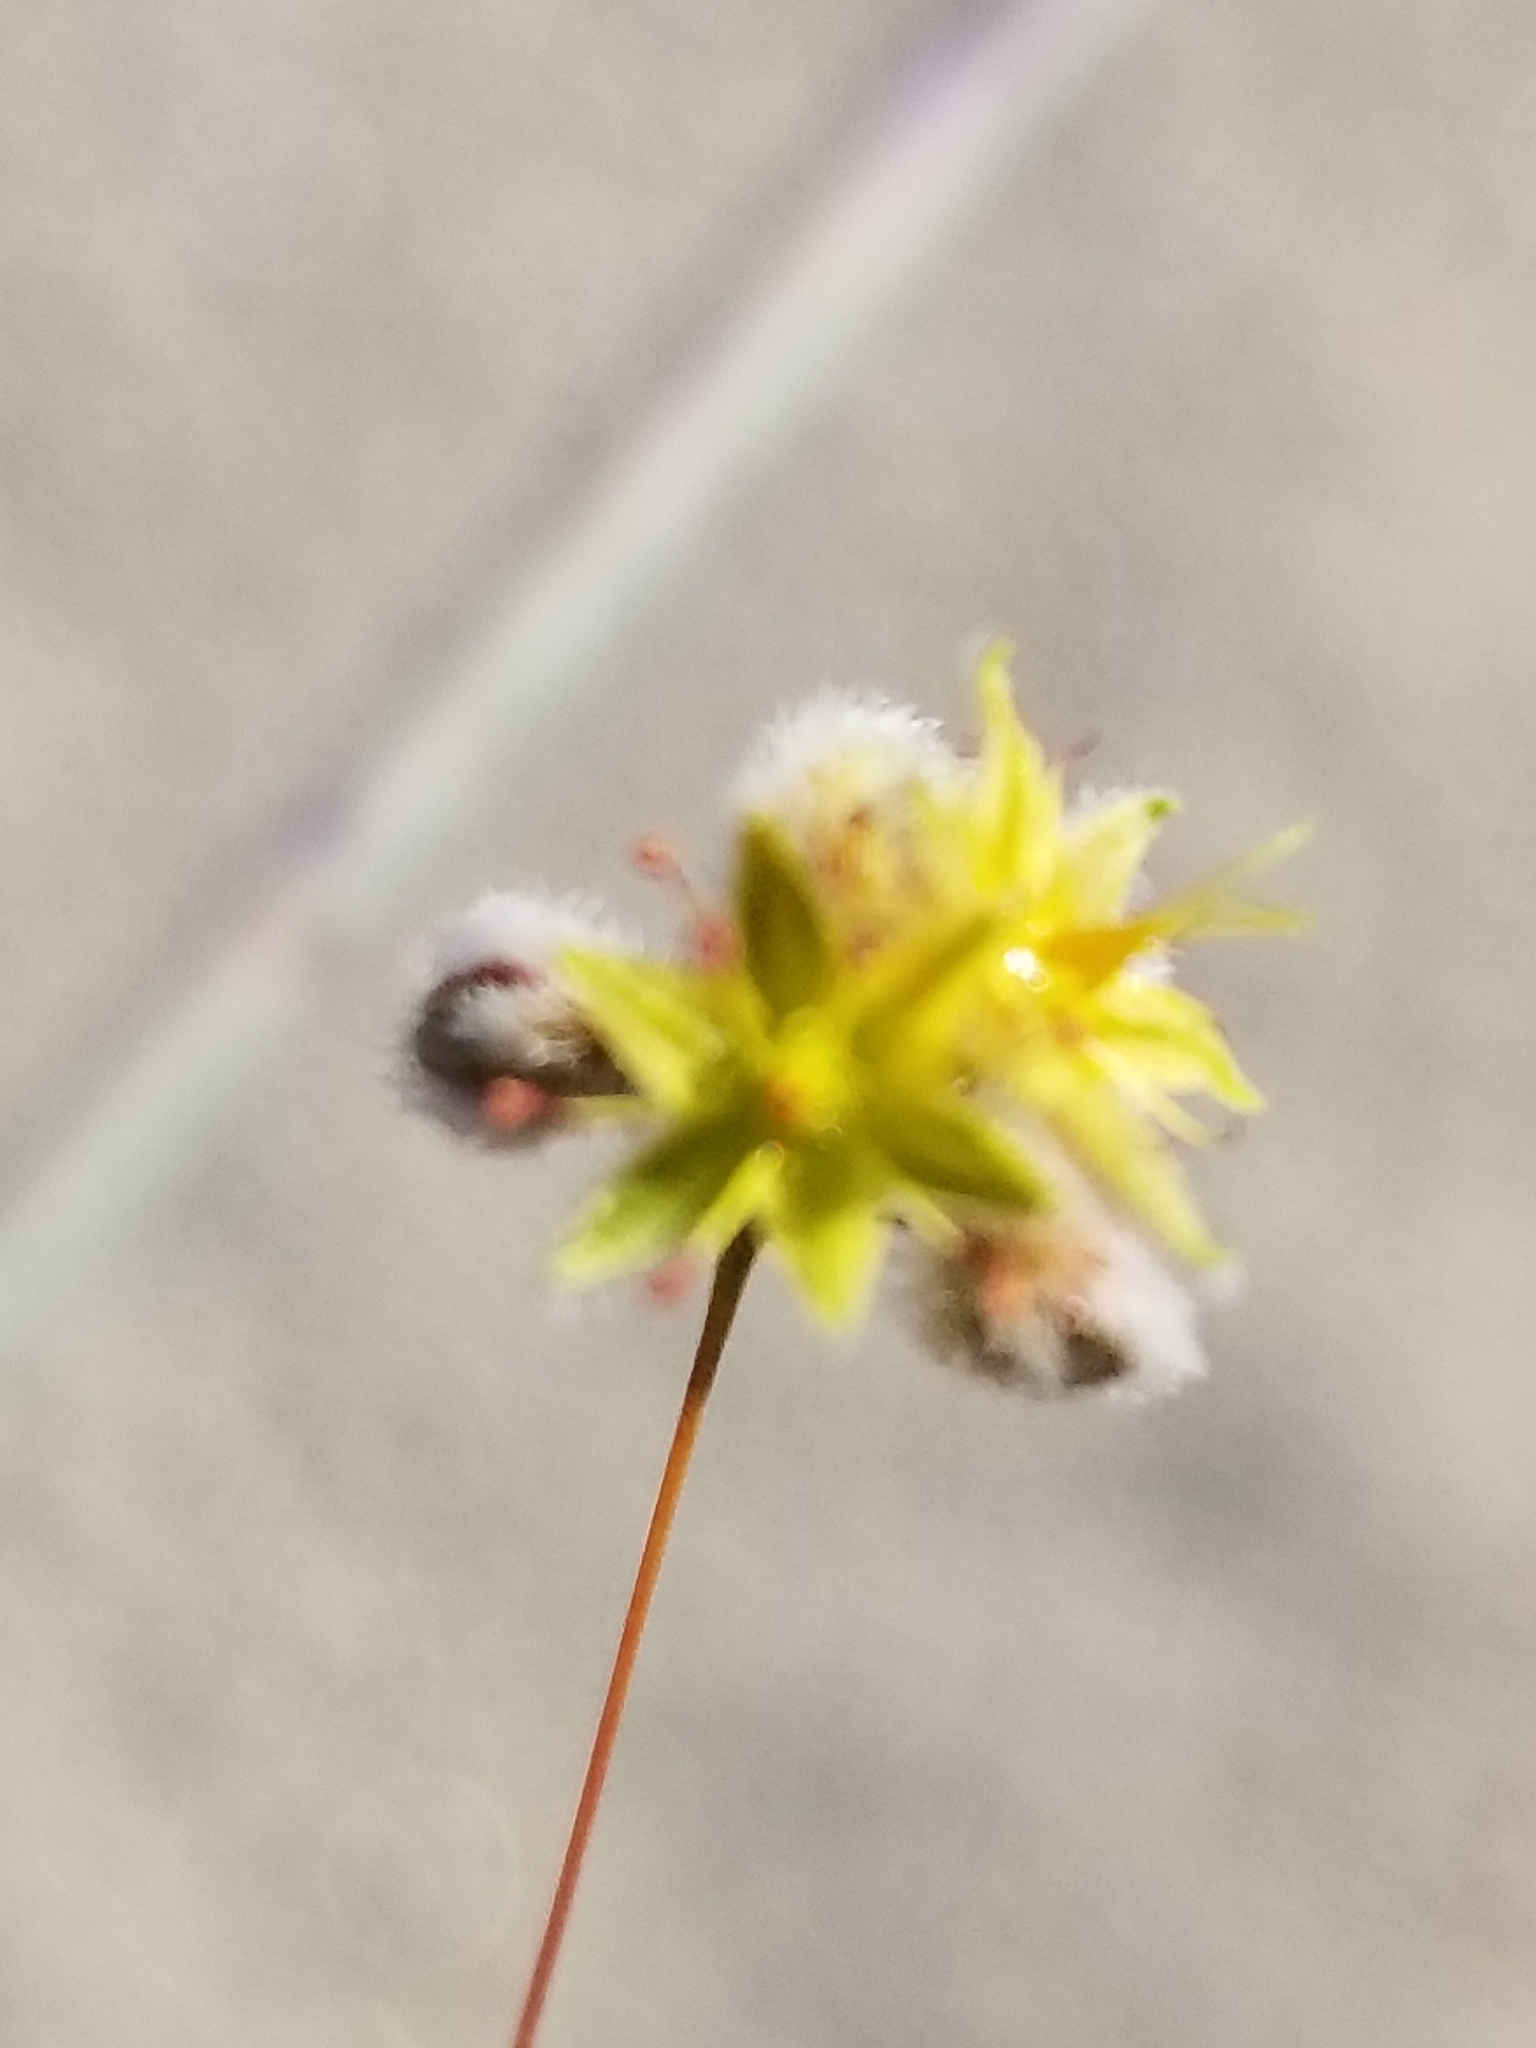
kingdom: Plantae
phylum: Tracheophyta
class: Magnoliopsida
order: Caryophyllales
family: Polygonaceae
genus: Eriogonum
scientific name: Eriogonum inflatum
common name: Desert trumpet
